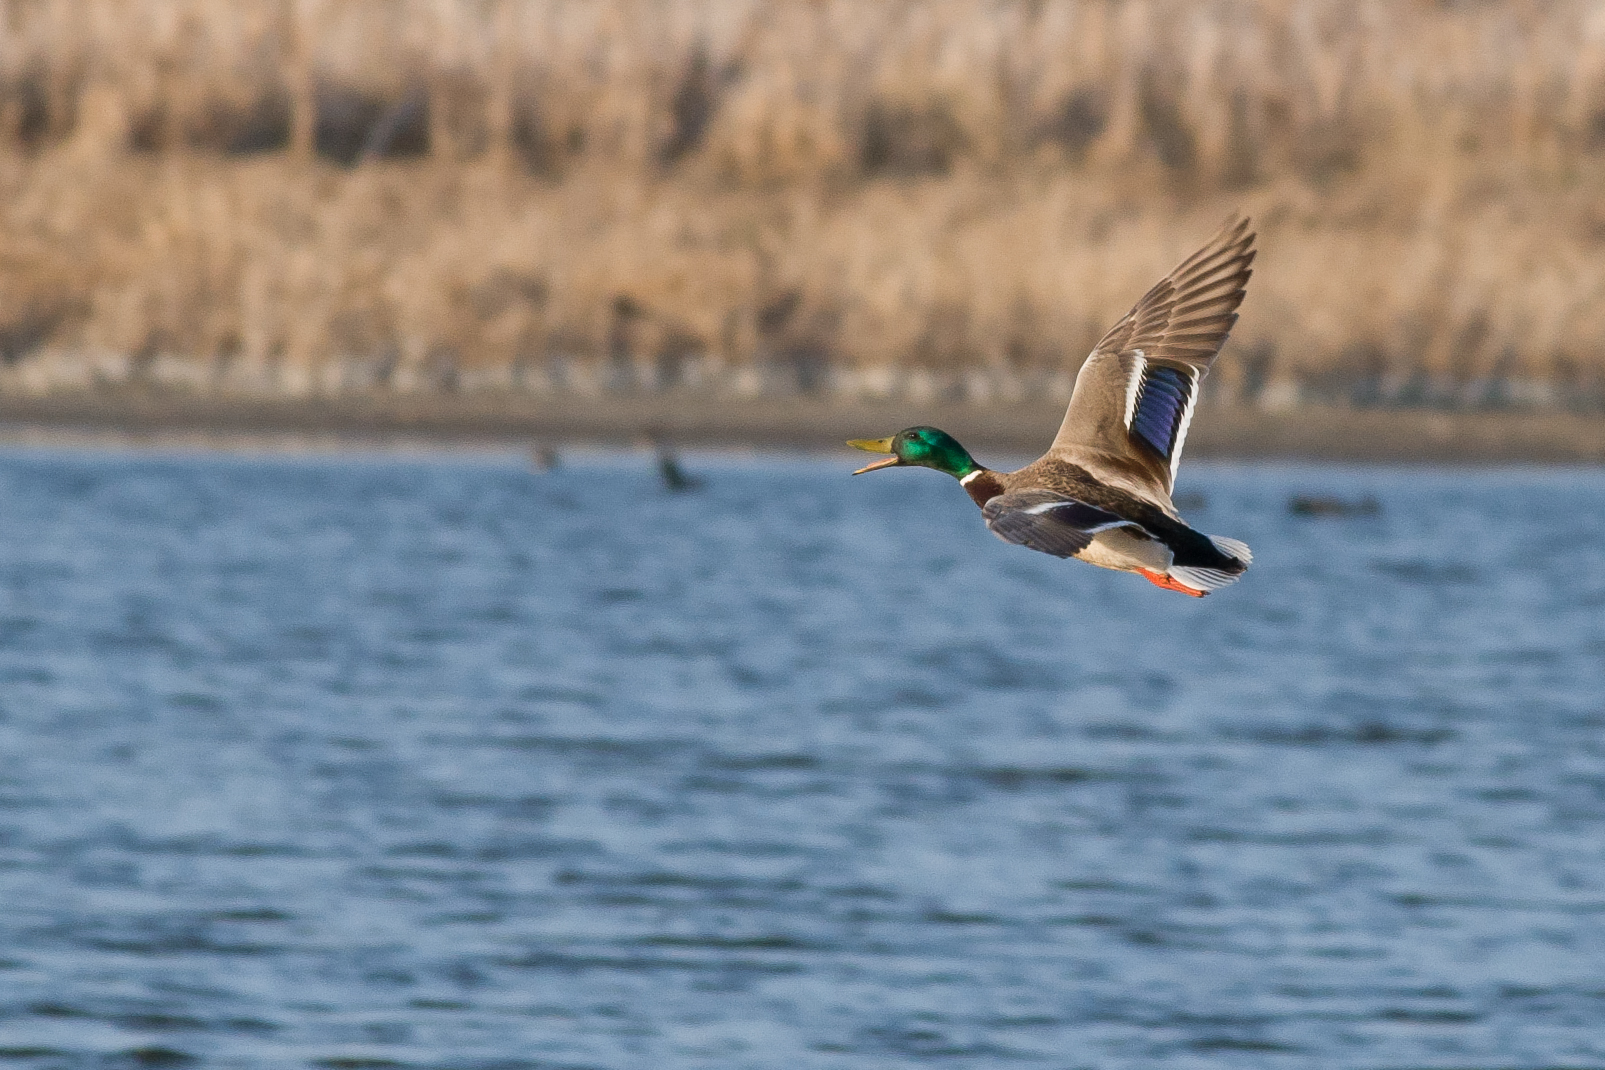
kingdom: Animalia
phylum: Chordata
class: Aves
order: Anseriformes
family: Anatidae
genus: Anas
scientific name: Anas platyrhynchos
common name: Mallard
